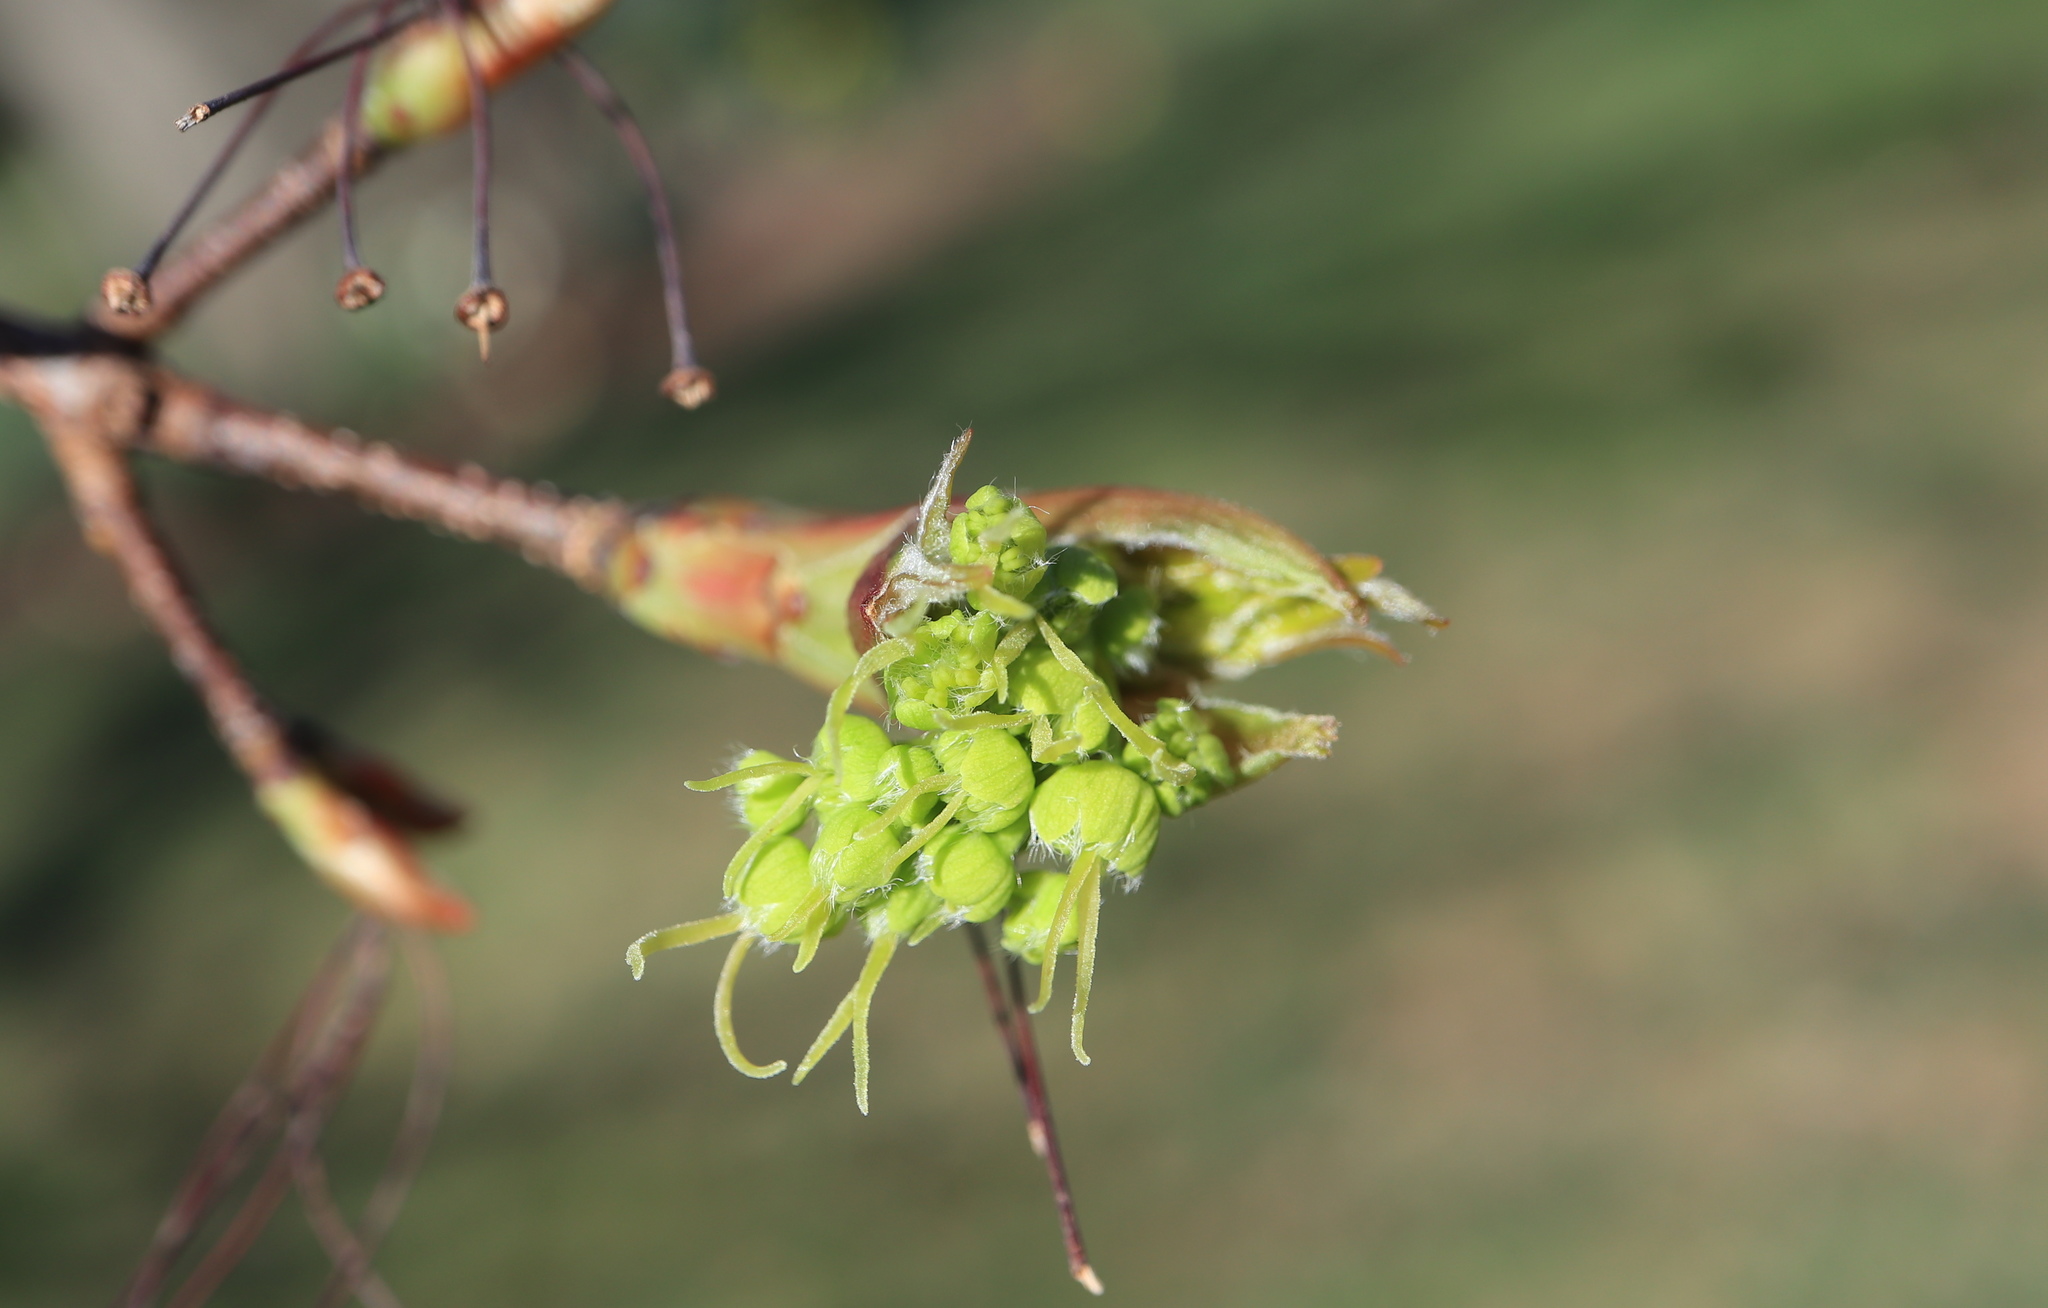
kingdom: Plantae
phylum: Tracheophyta
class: Magnoliopsida
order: Sapindales
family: Sapindaceae
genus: Acer
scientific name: Acer saccharum
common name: Sugar maple
